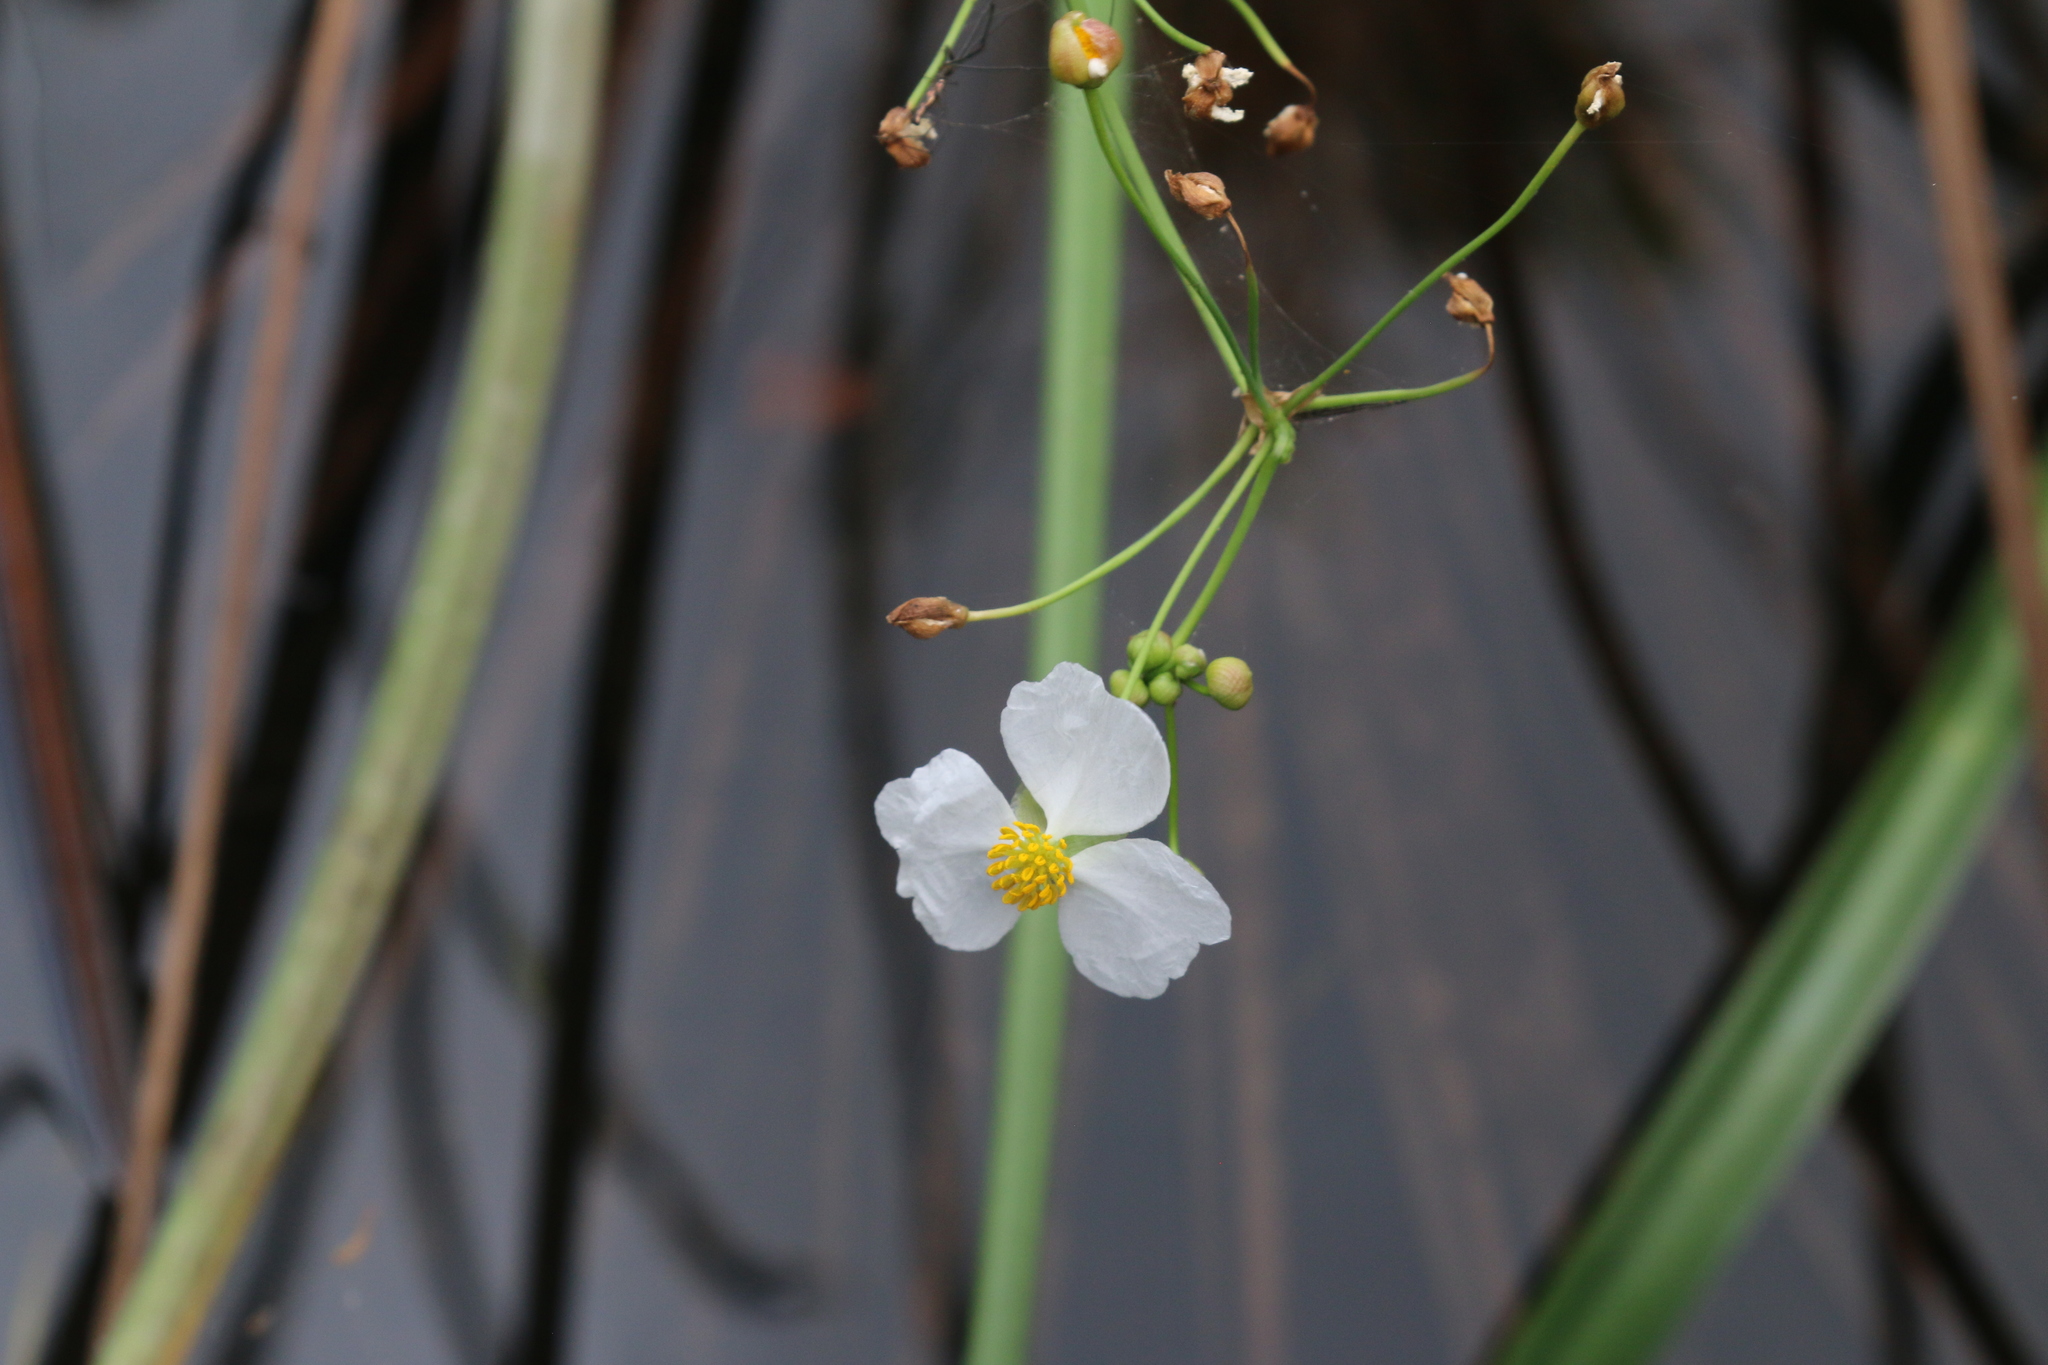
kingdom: Plantae
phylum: Tracheophyta
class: Liliopsida
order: Alismatales
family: Alismataceae
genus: Sagittaria
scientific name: Sagittaria lancifolia
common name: Lance-leaf arrowhead
